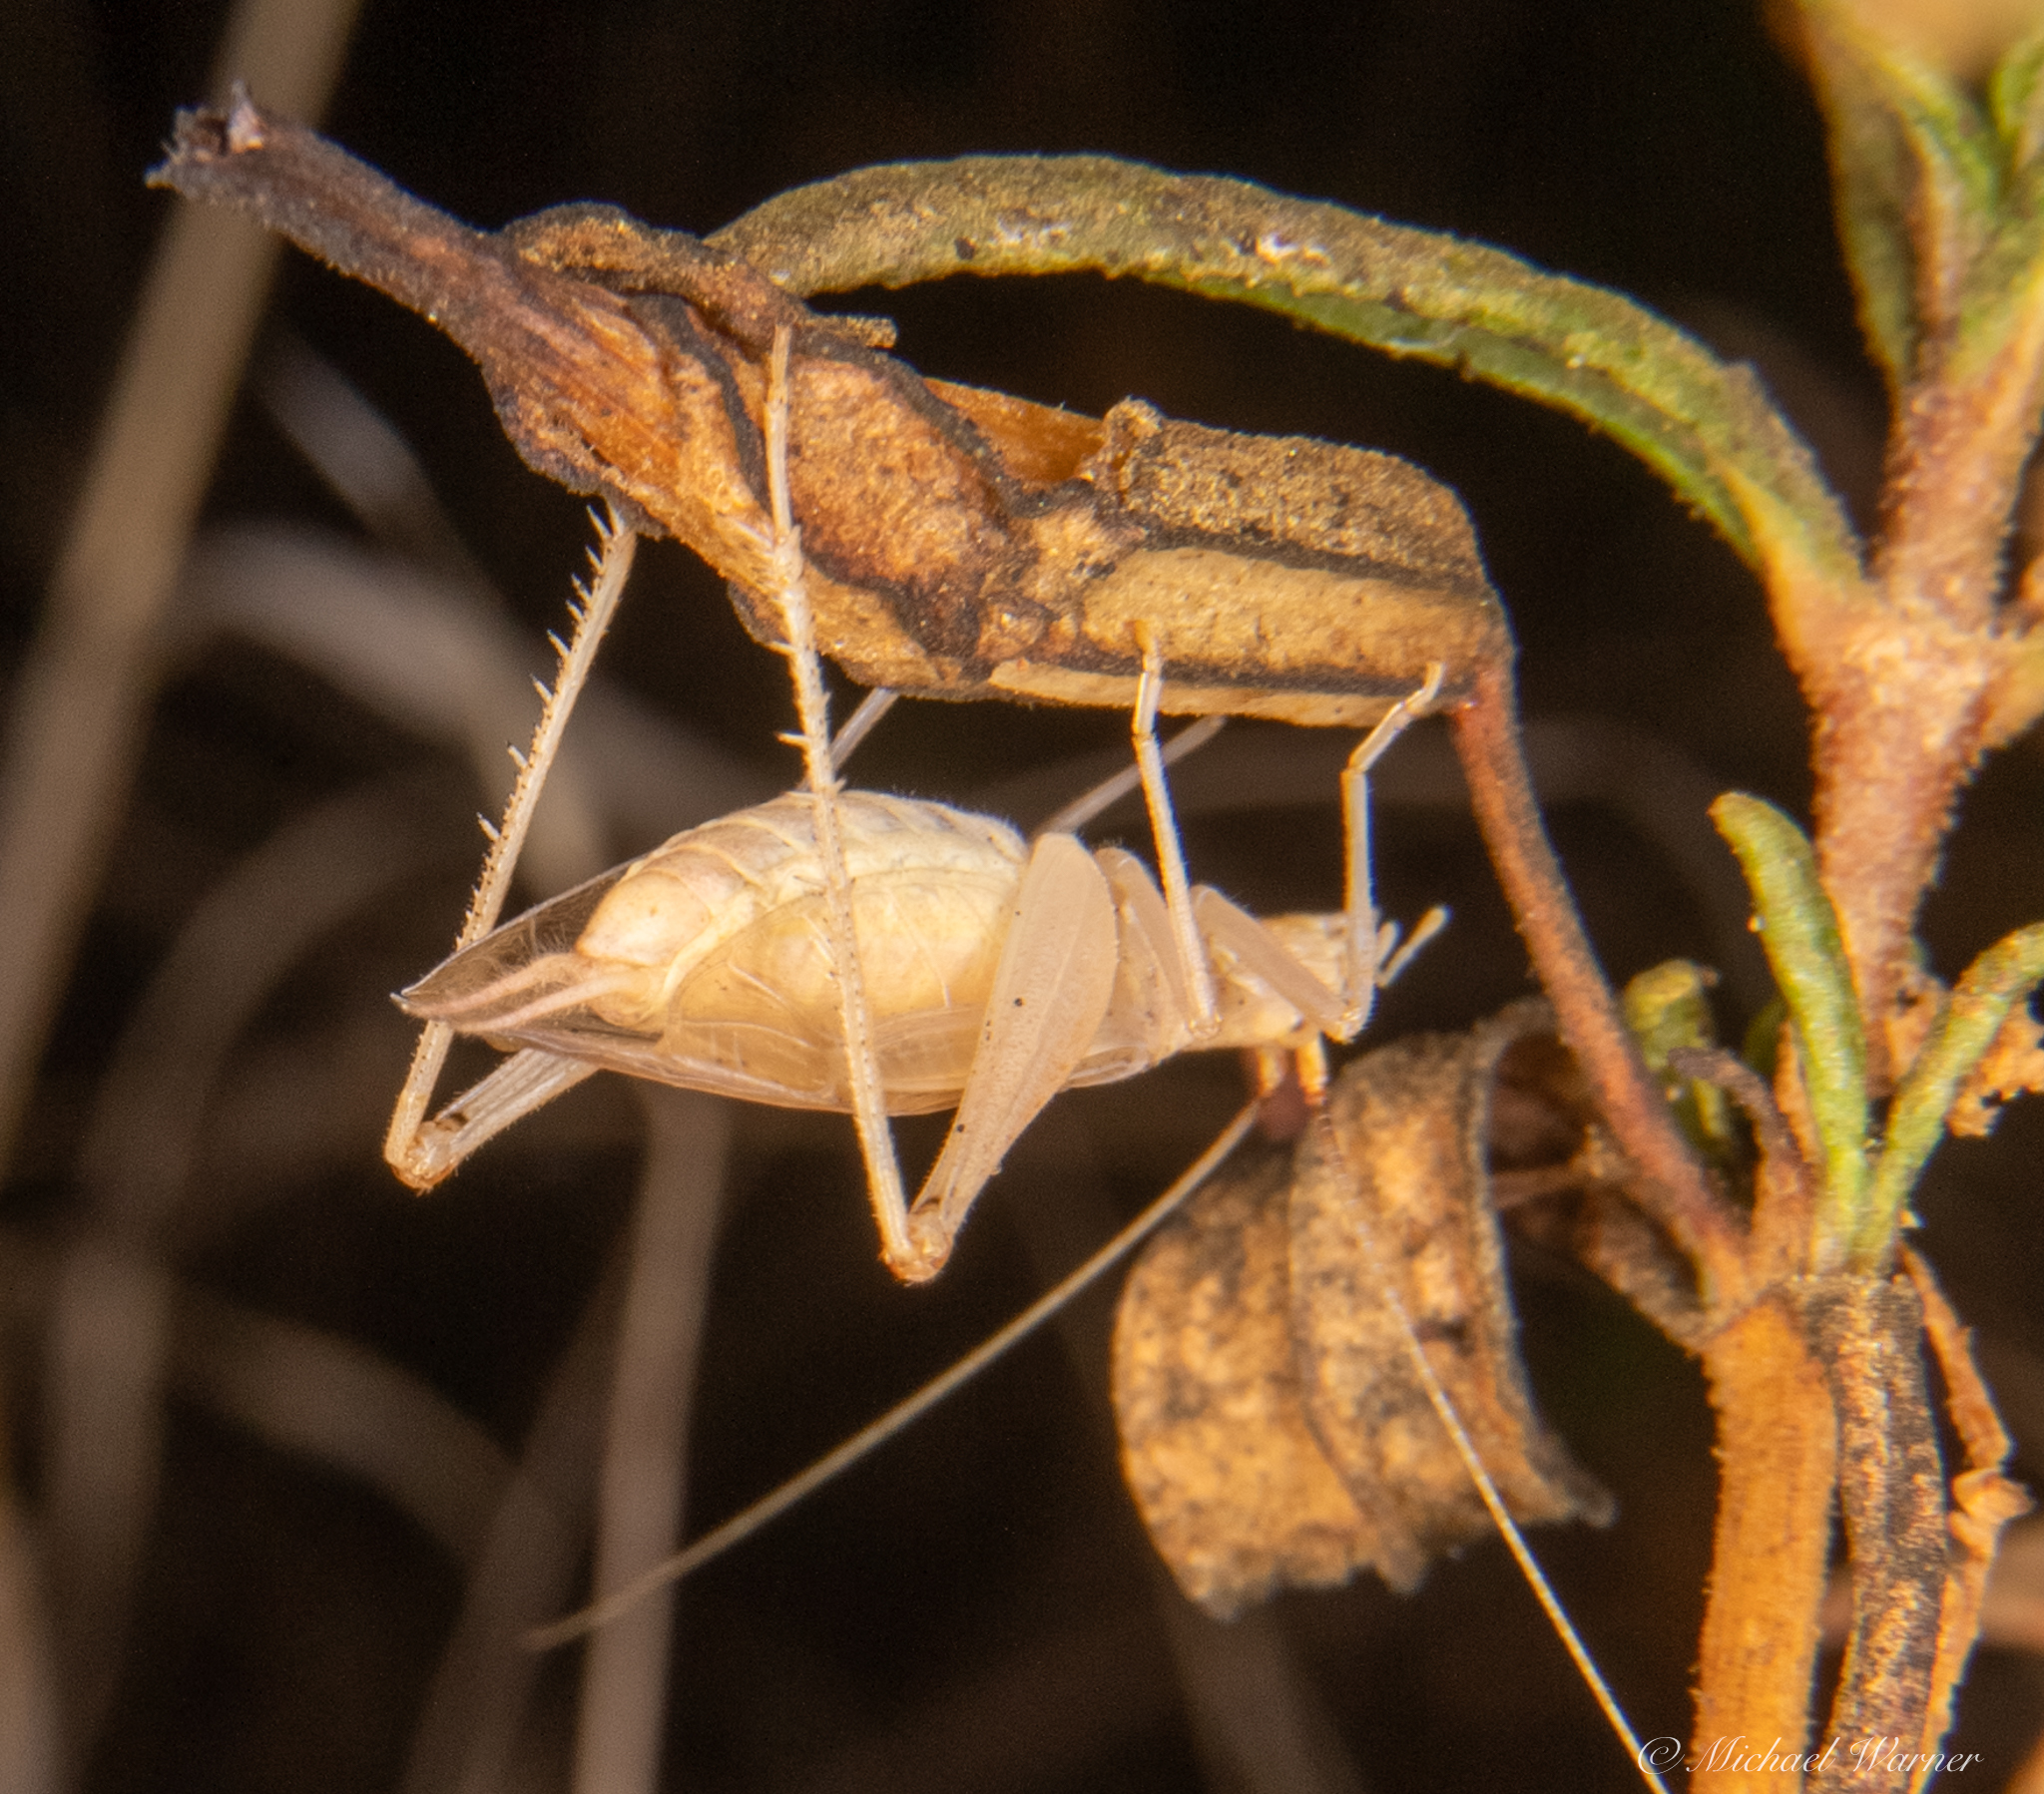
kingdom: Animalia
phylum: Arthropoda
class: Insecta
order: Orthoptera
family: Gryllidae
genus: Oecanthus
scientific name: Oecanthus californicus
